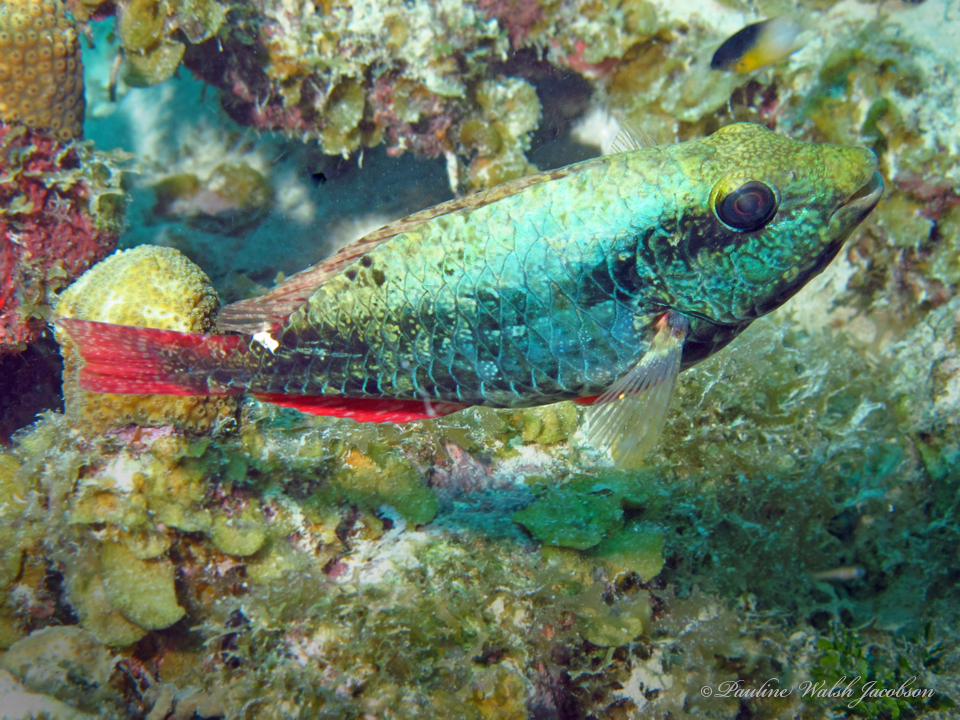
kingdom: Animalia
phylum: Chordata
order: Perciformes
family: Scaridae
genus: Sparisoma
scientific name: Sparisoma aurofrenatum
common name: Redband parrotfish
